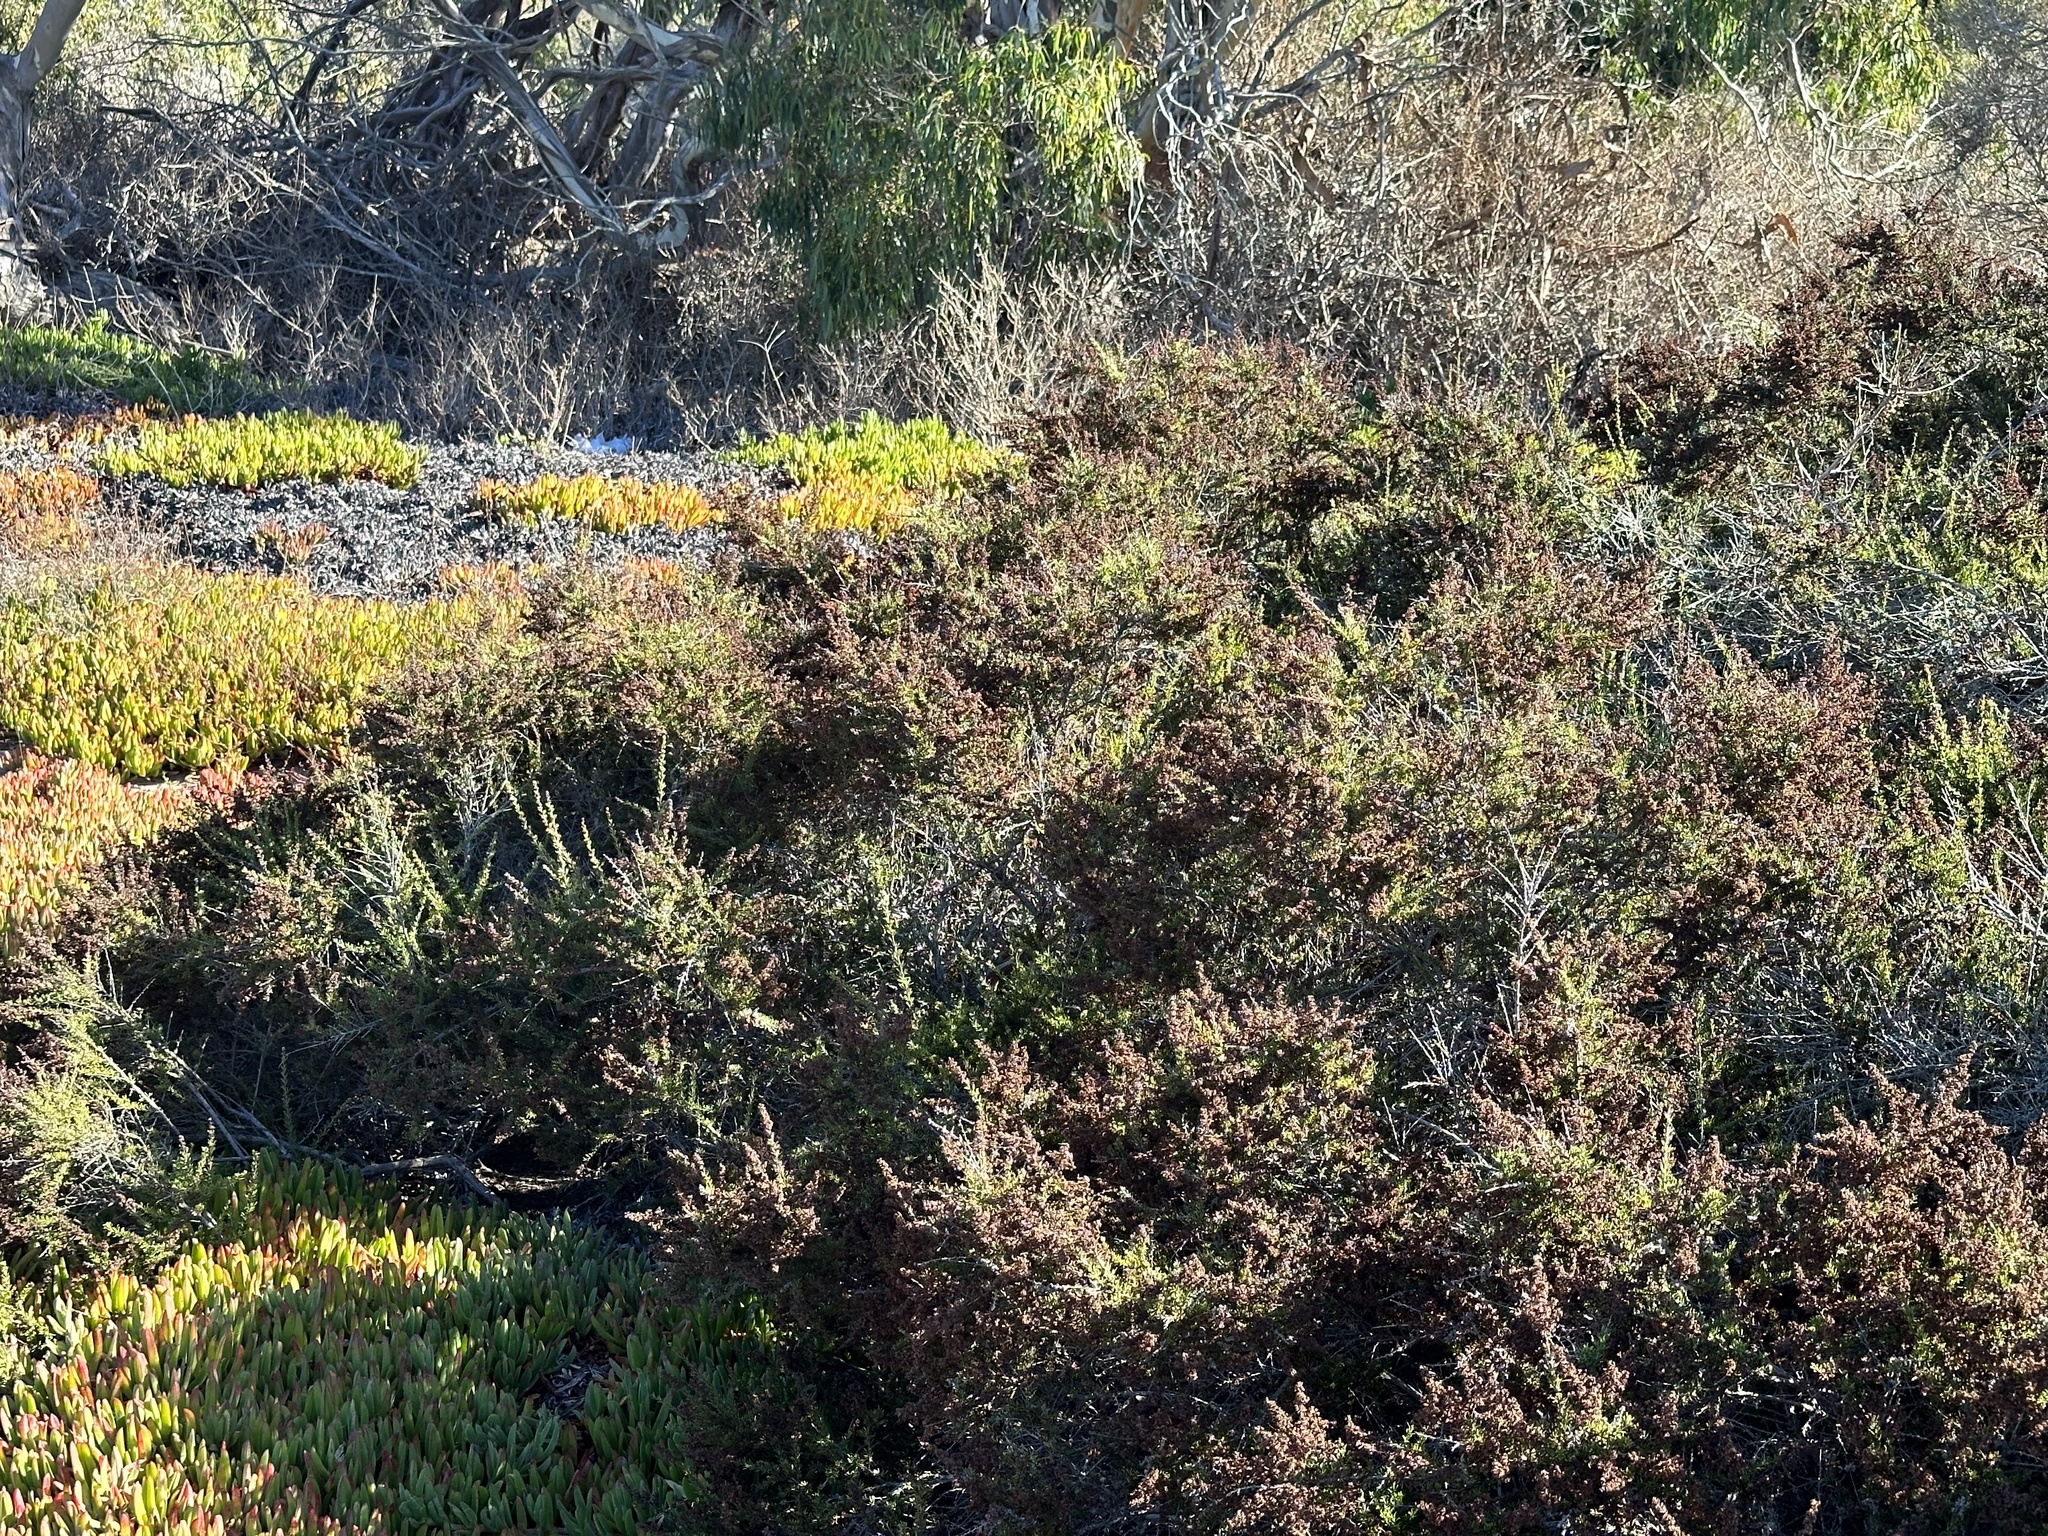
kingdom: Plantae
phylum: Tracheophyta
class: Magnoliopsida
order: Rosales
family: Rosaceae
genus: Adenostoma
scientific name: Adenostoma fasciculatum
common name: Chamise
